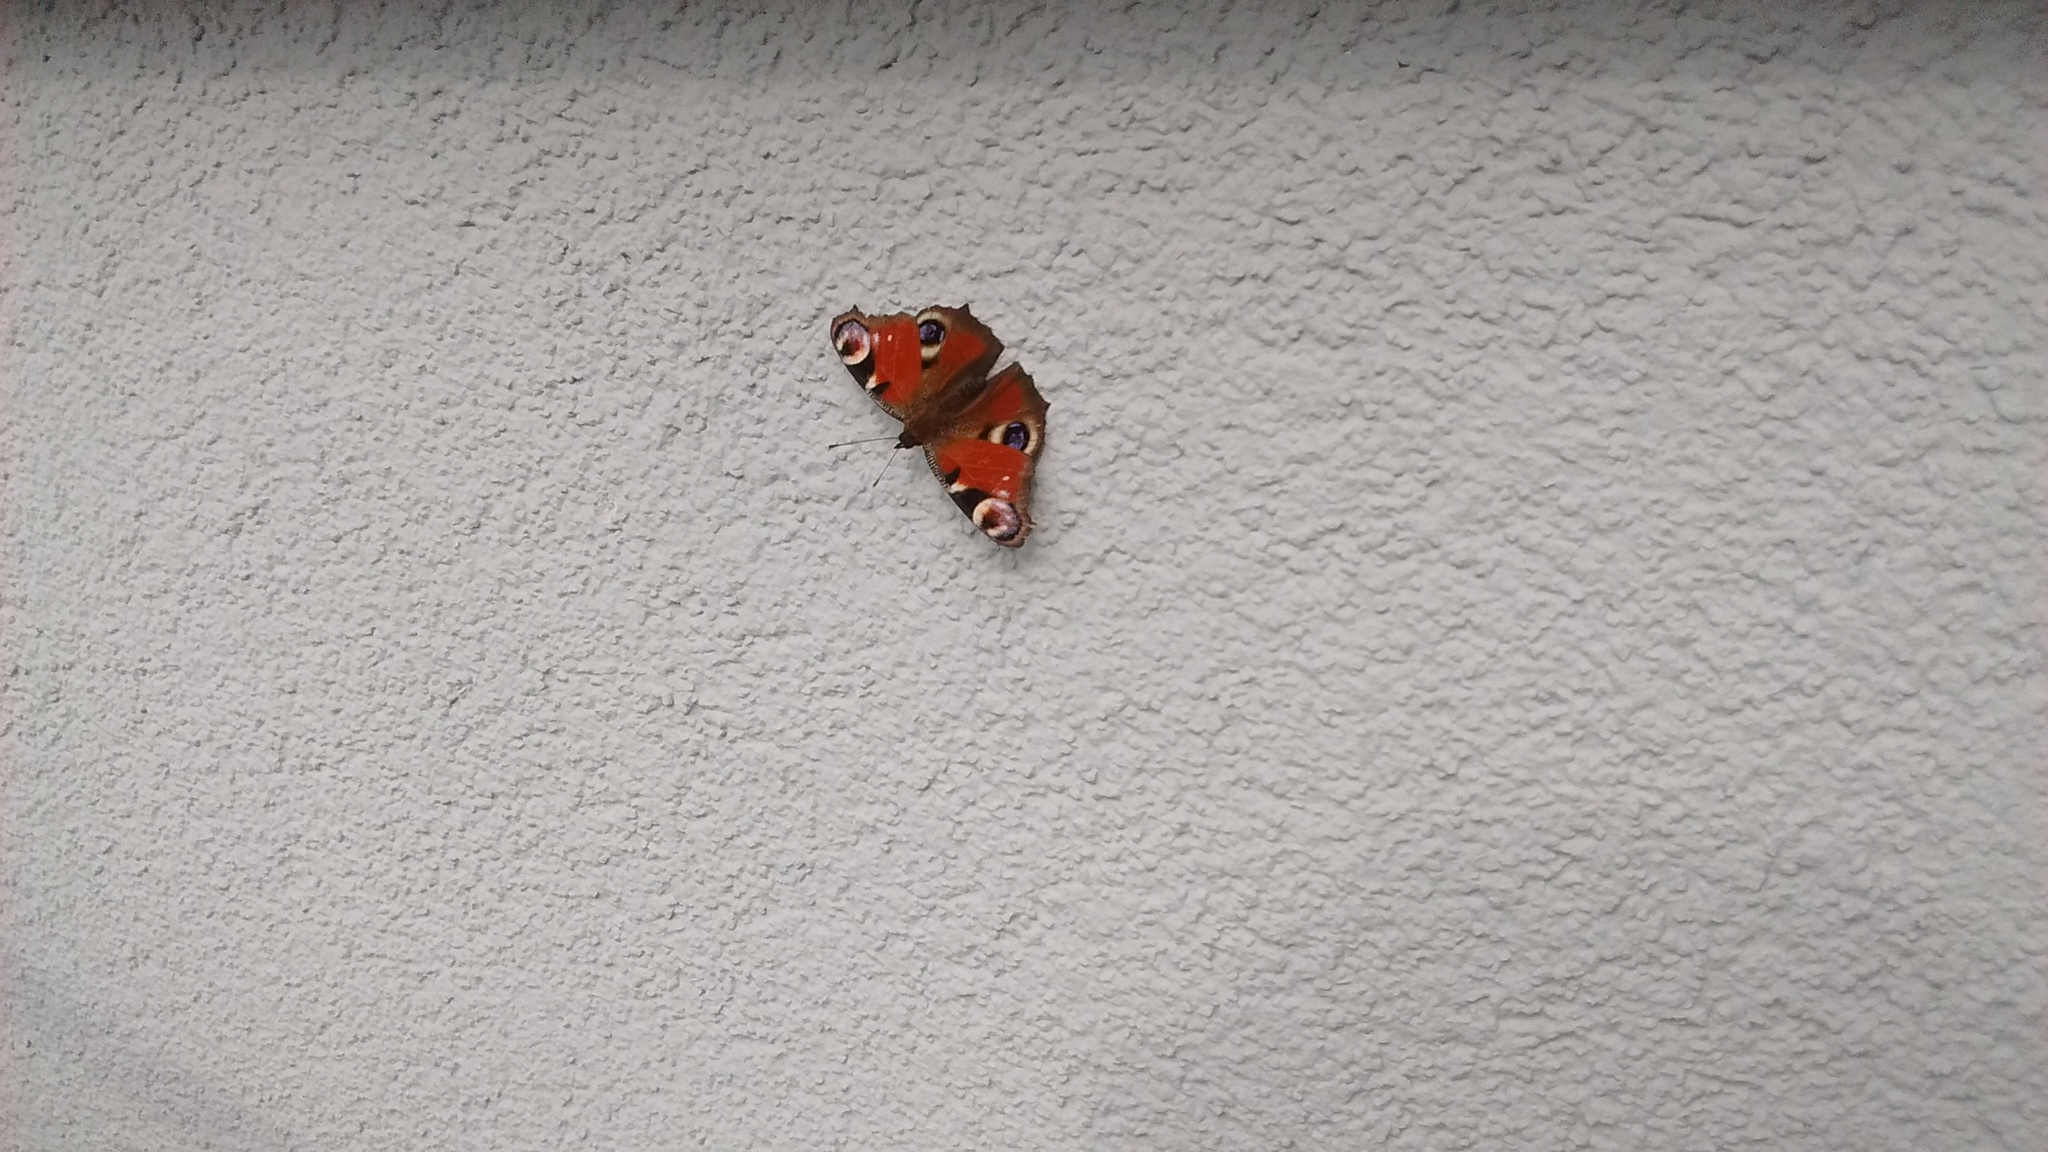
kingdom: Animalia
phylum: Arthropoda
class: Insecta
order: Lepidoptera
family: Nymphalidae
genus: Aglais
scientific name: Aglais io
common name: Peacock
